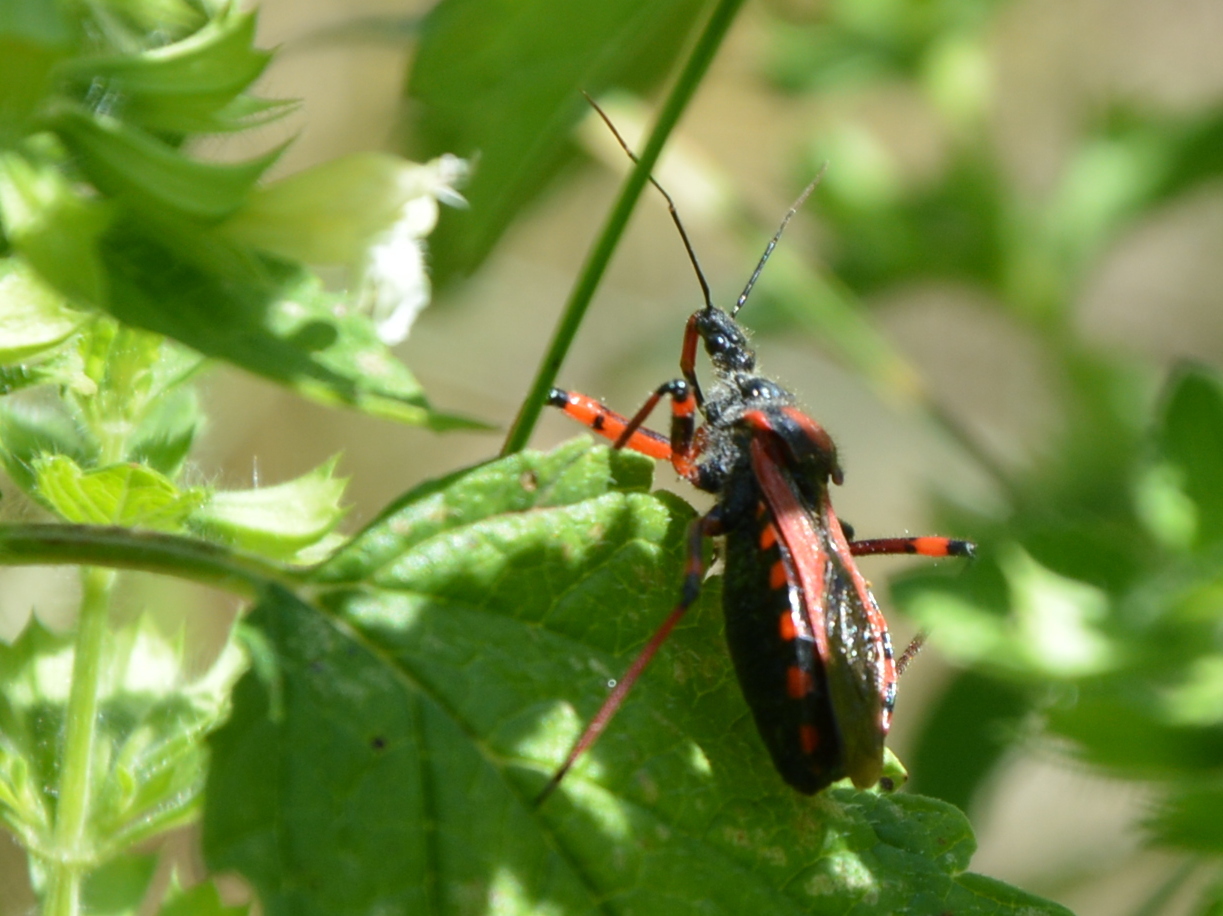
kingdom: Animalia
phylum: Arthropoda
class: Insecta
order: Hemiptera
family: Reduviidae
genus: Rhynocoris
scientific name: Rhynocoris iracundus
